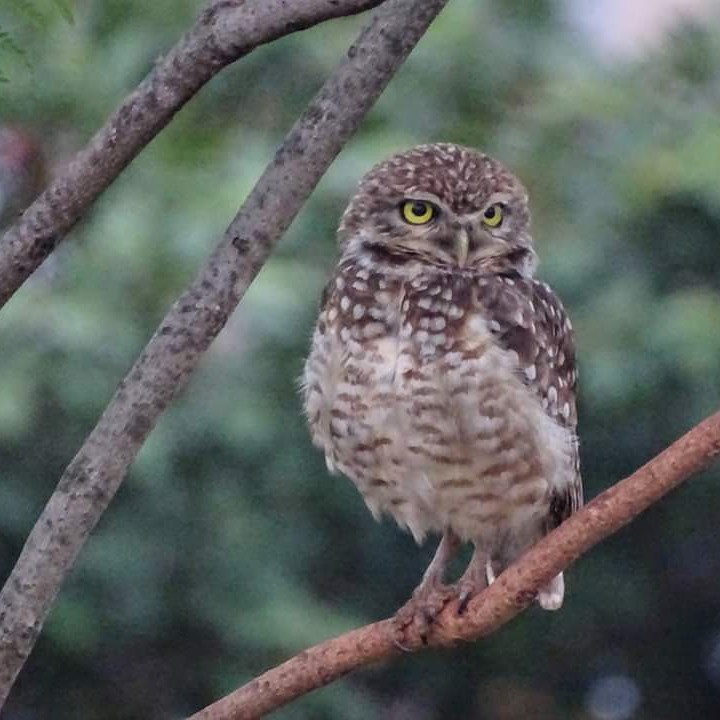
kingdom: Animalia
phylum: Chordata
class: Aves
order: Strigiformes
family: Strigidae
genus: Athene
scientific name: Athene cunicularia
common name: Burrowing owl
